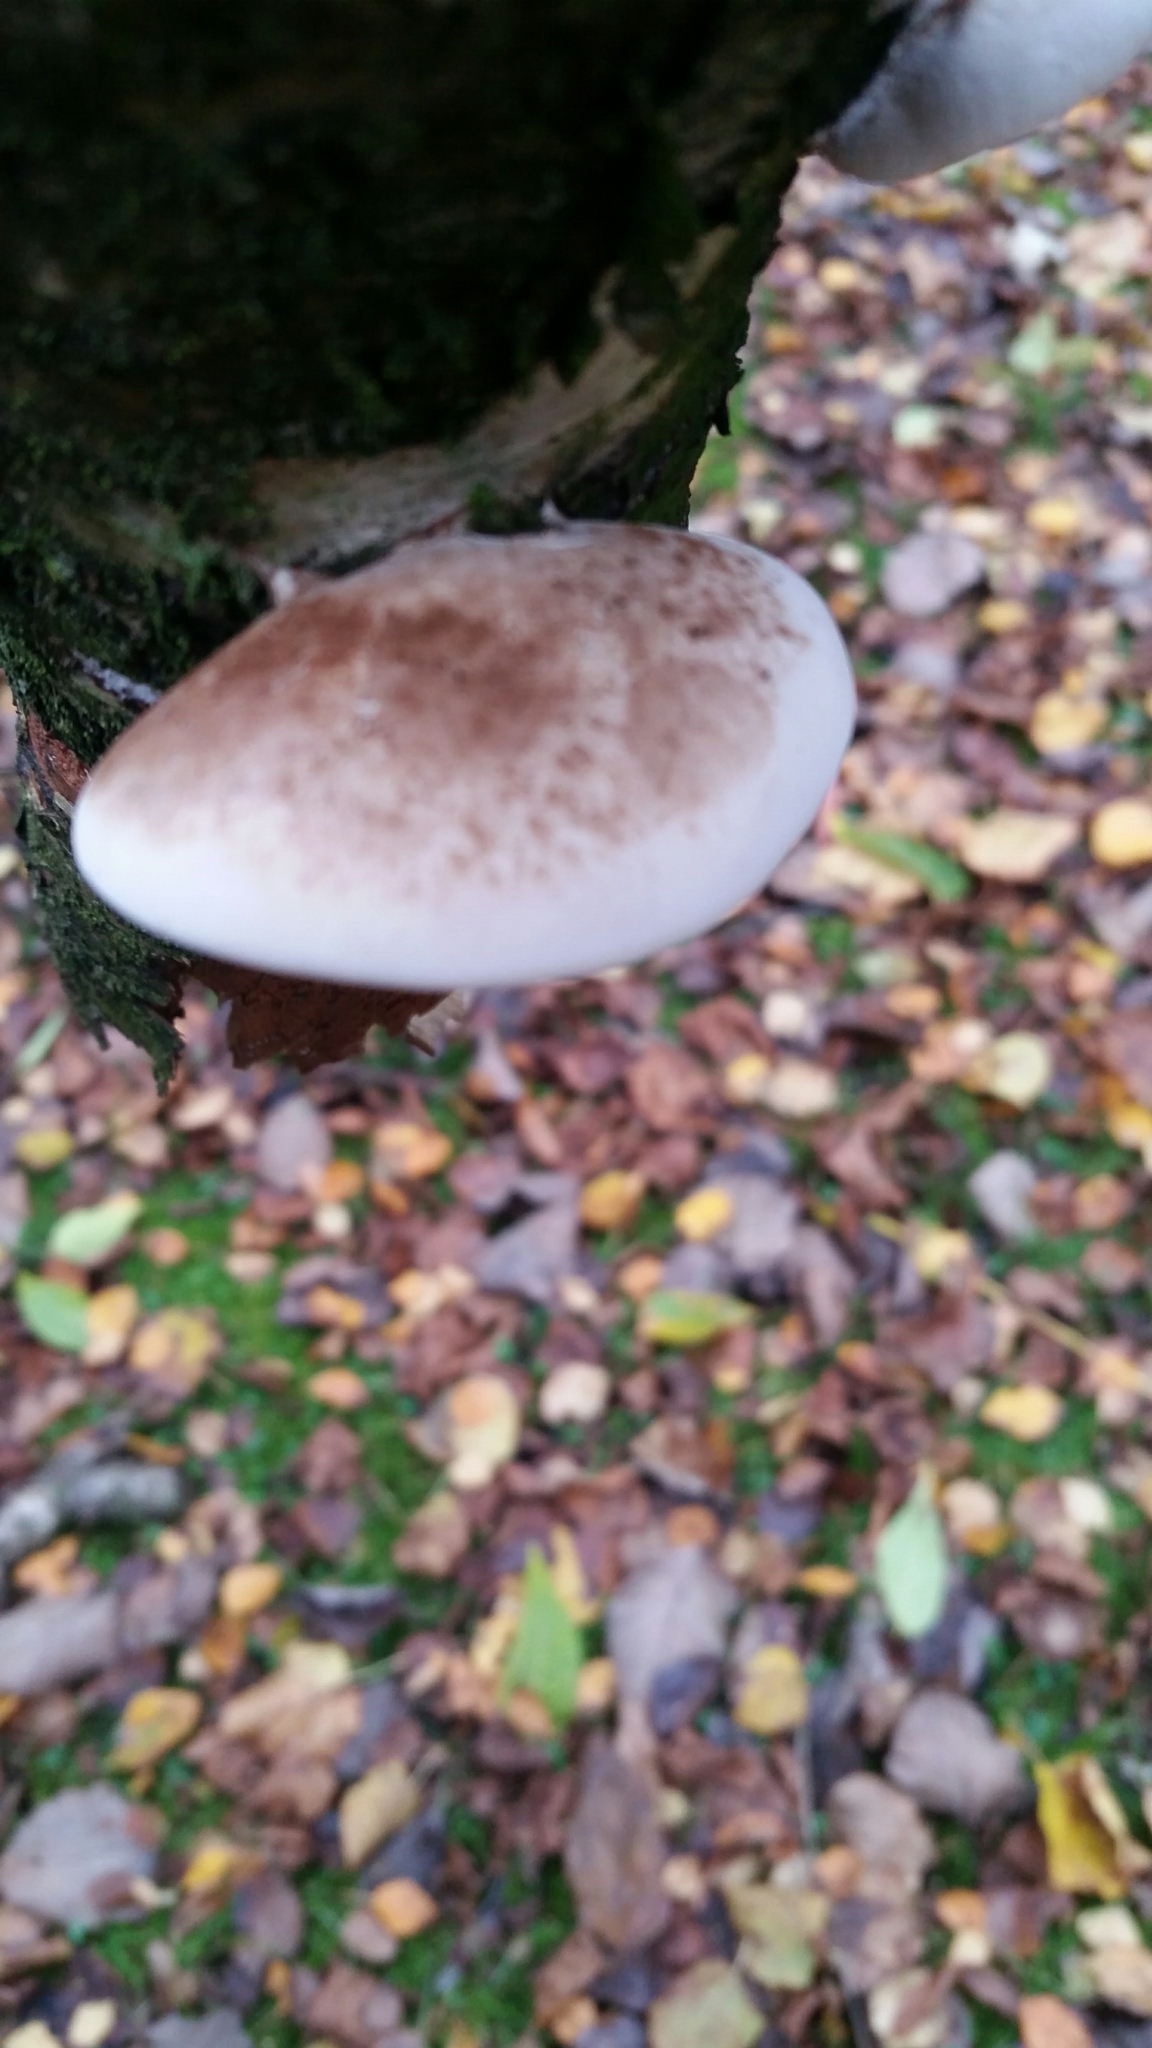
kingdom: Fungi
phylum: Basidiomycota
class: Agaricomycetes
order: Polyporales
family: Fomitopsidaceae
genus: Fomitopsis
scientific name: Fomitopsis betulina
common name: Birch polypore
